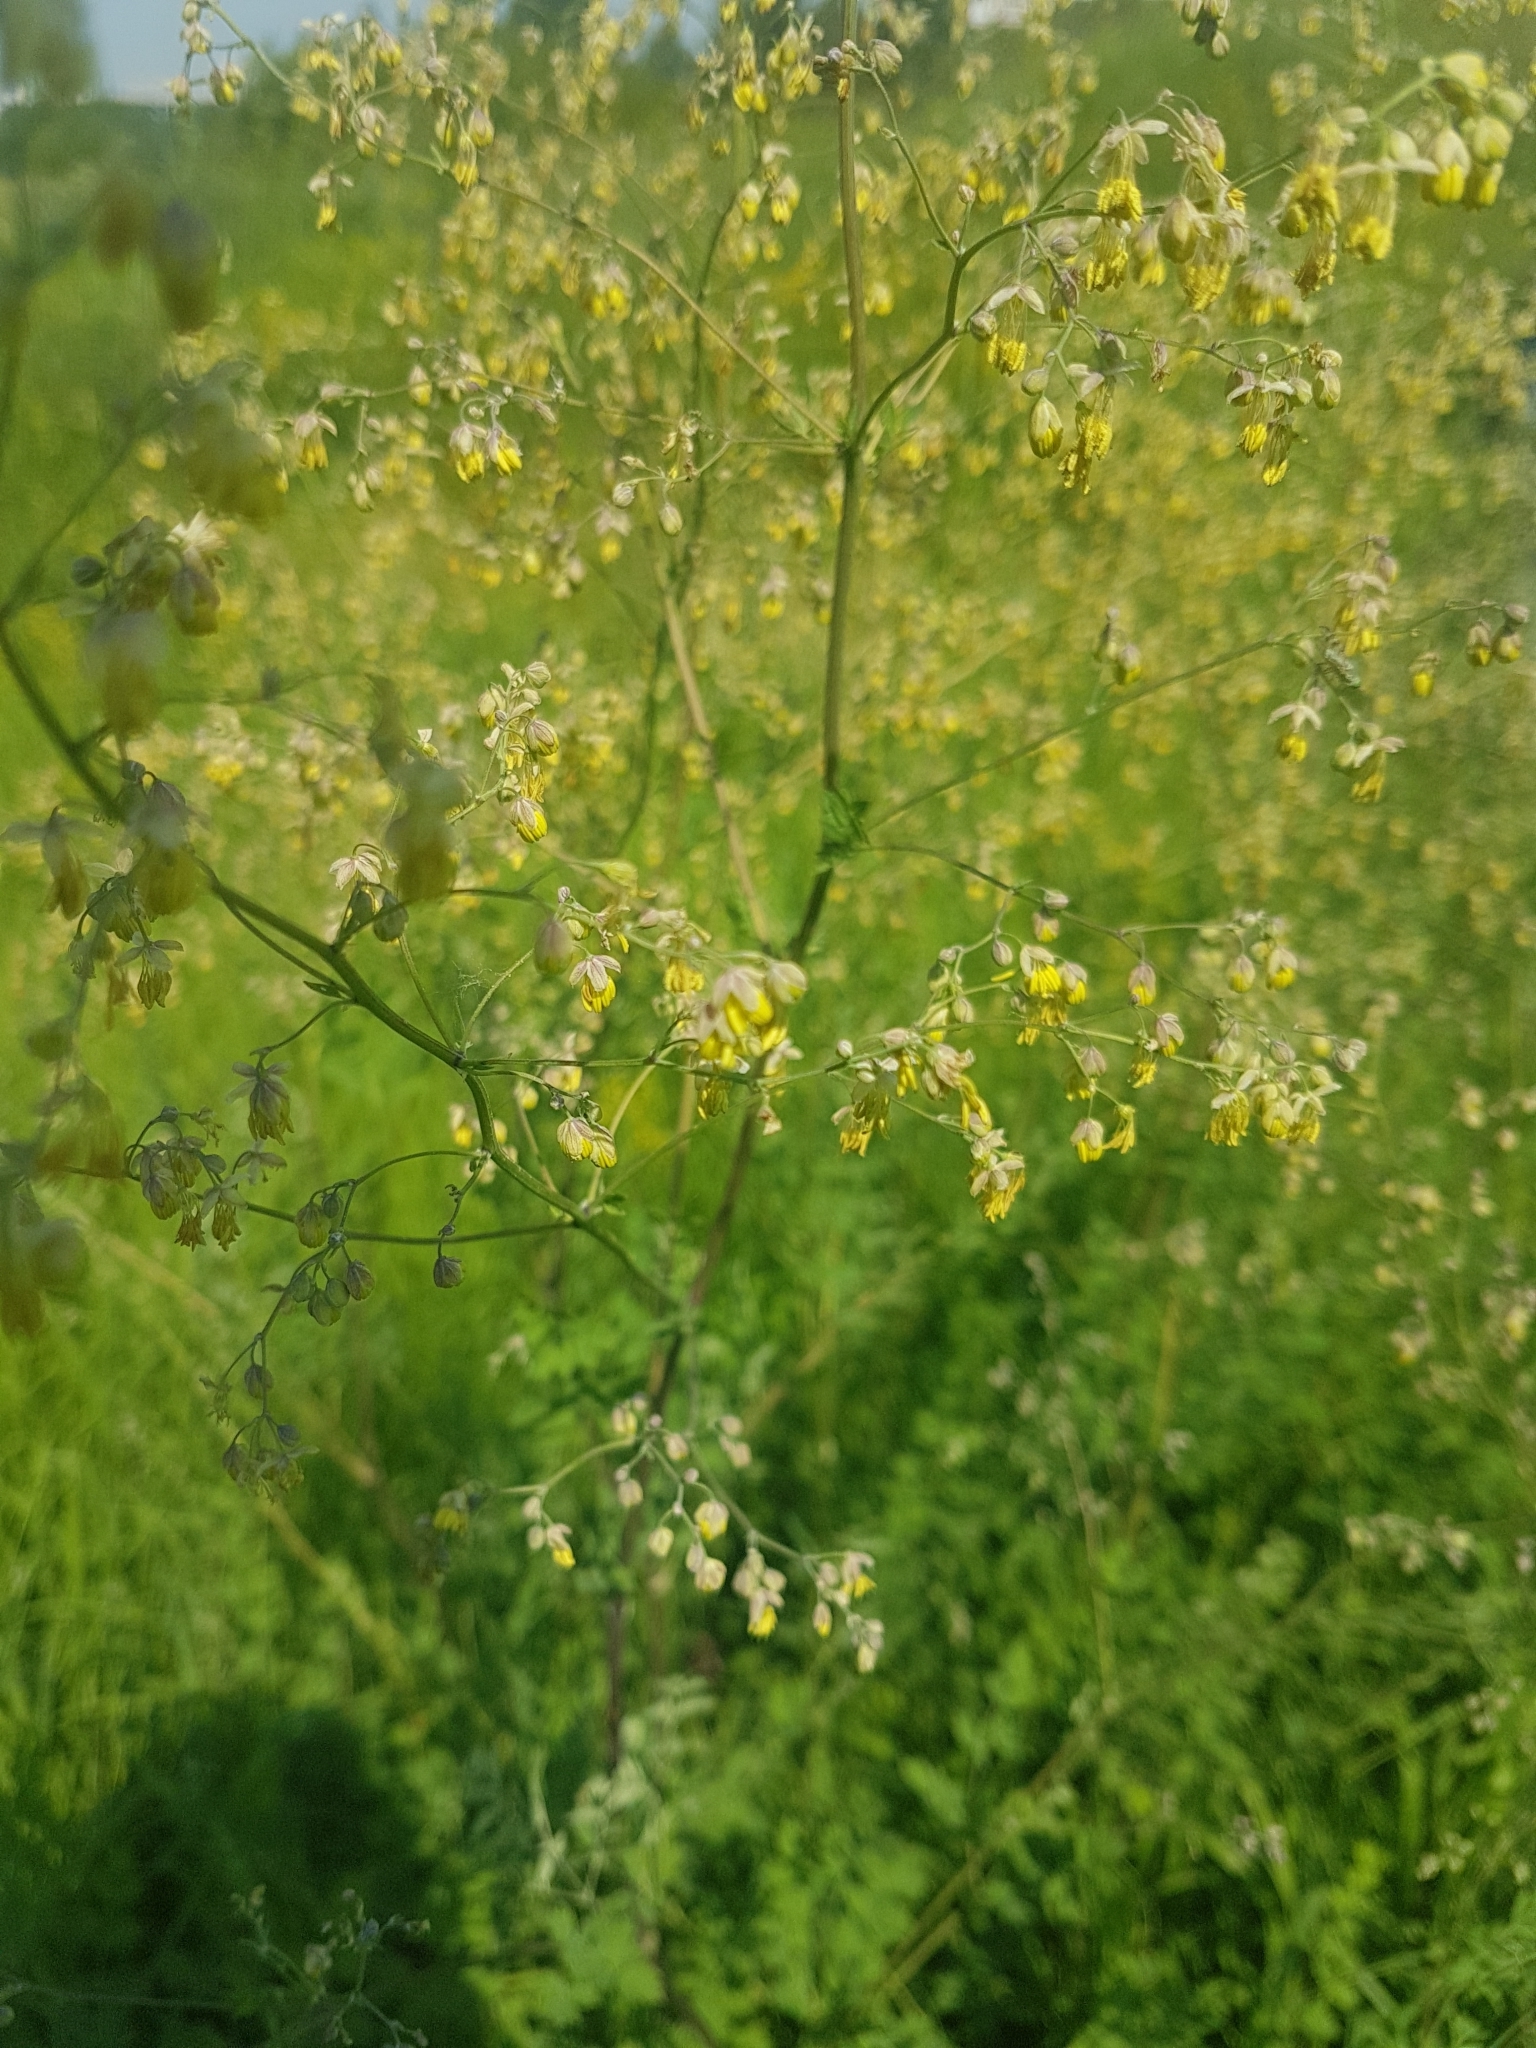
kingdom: Plantae
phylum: Tracheophyta
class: Magnoliopsida
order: Ranunculales
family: Ranunculaceae
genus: Thalictrum
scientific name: Thalictrum minus
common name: Lesser meadow-rue
